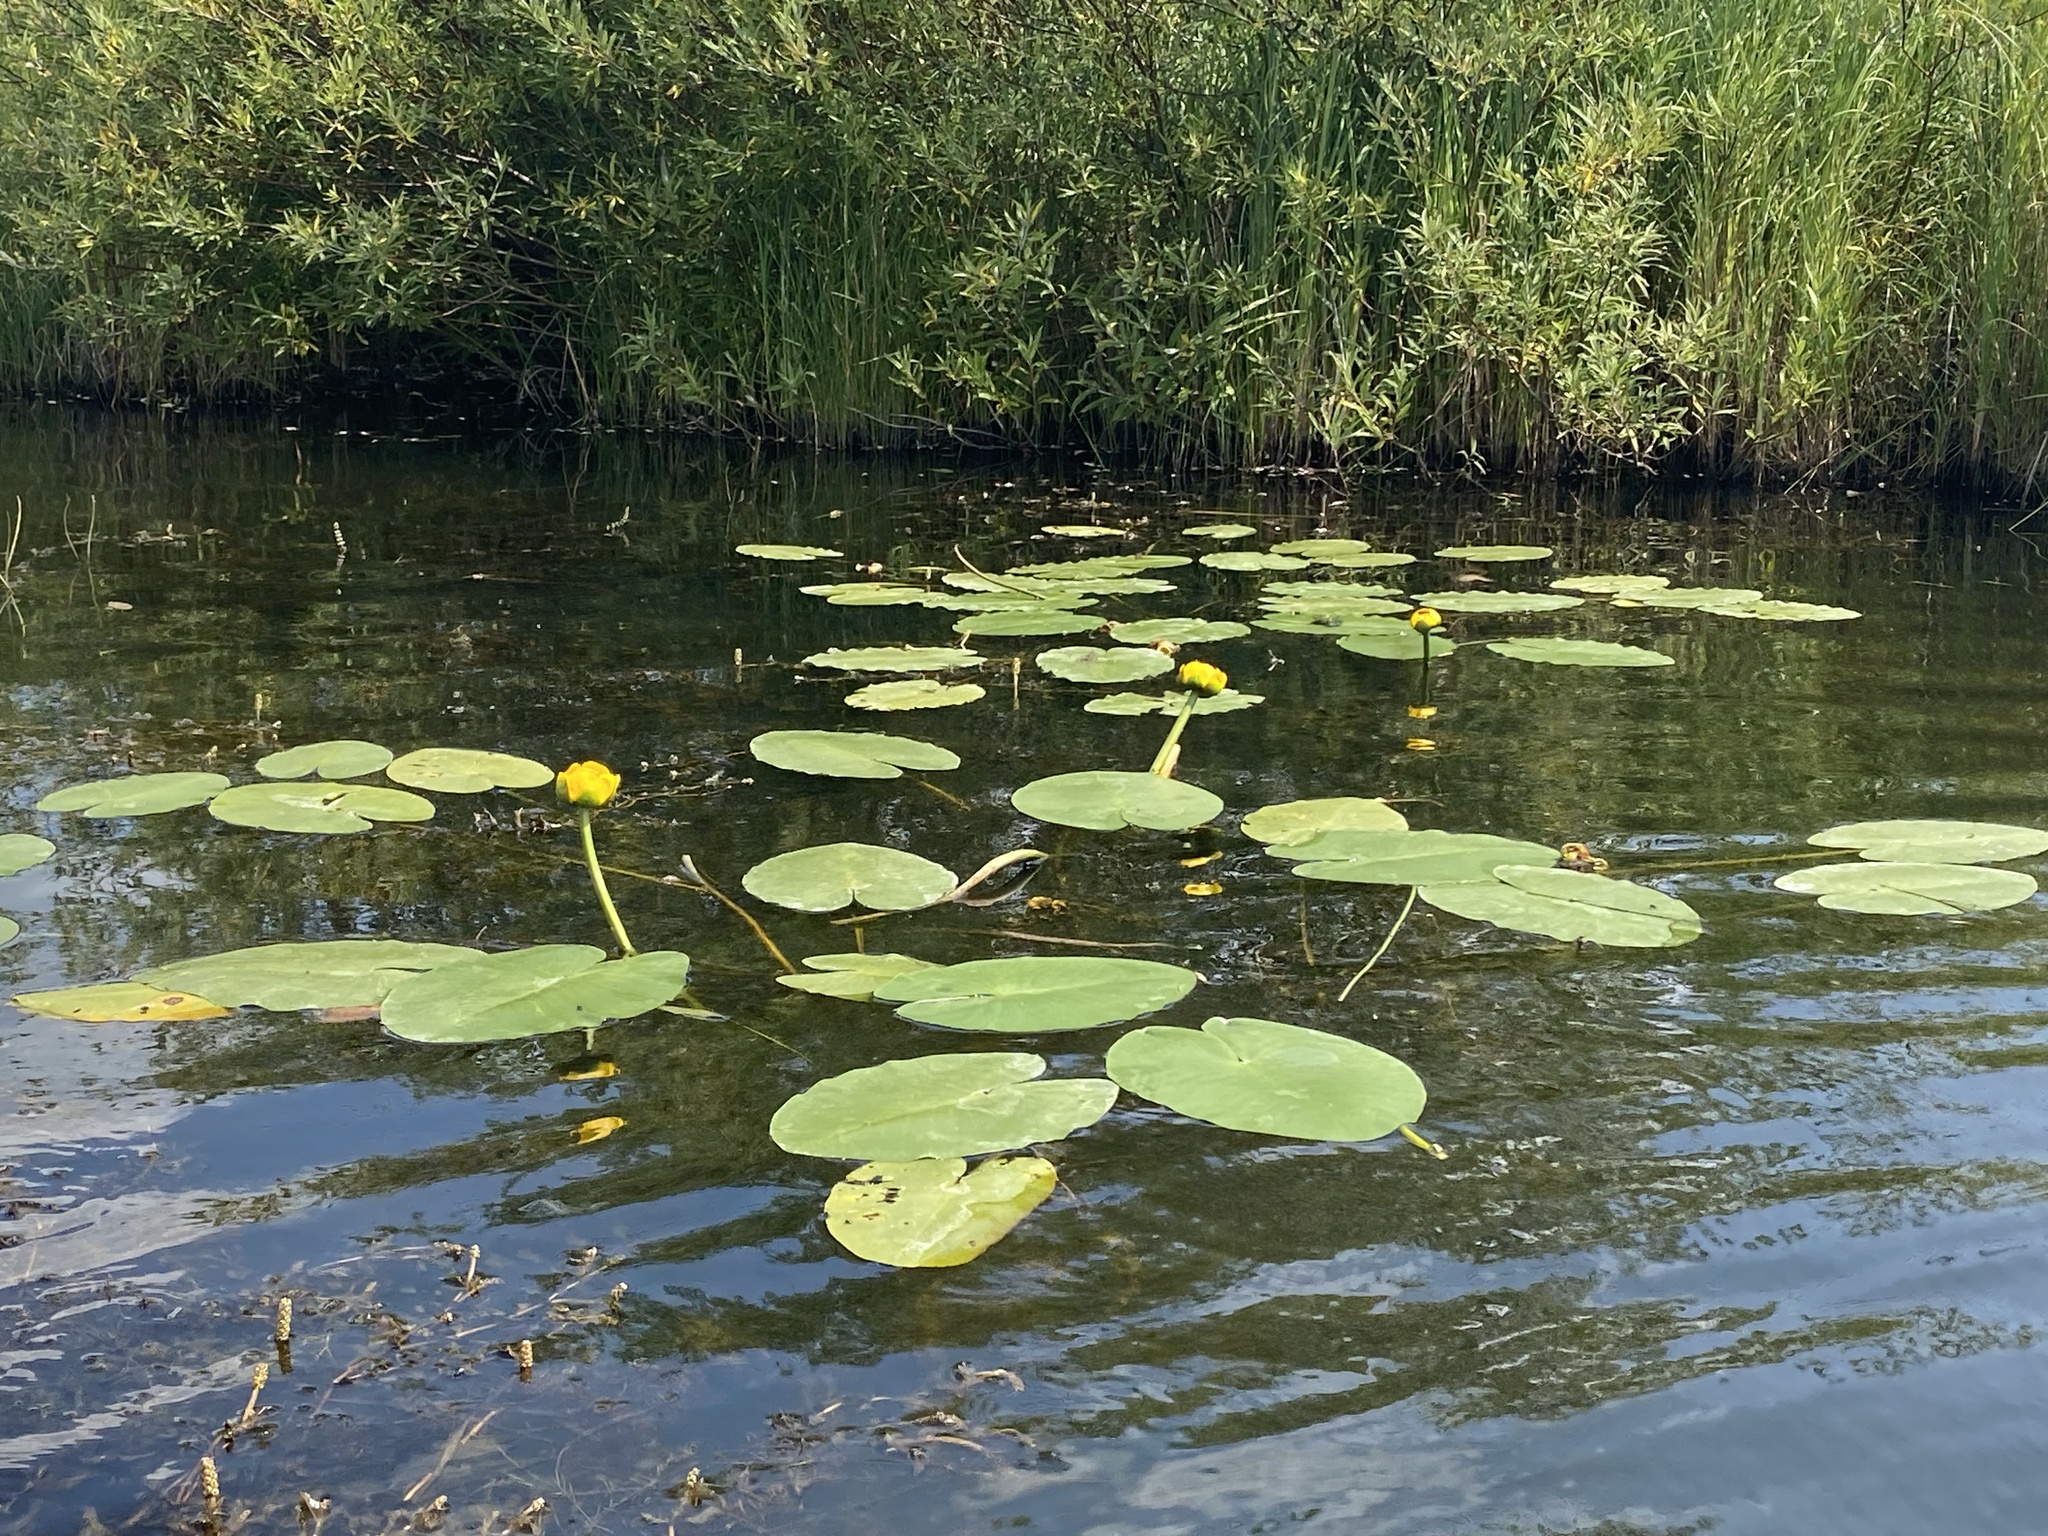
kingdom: Plantae
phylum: Tracheophyta
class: Magnoliopsida
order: Nymphaeales
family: Nymphaeaceae
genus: Nuphar
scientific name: Nuphar variegata
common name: Beaver-root
